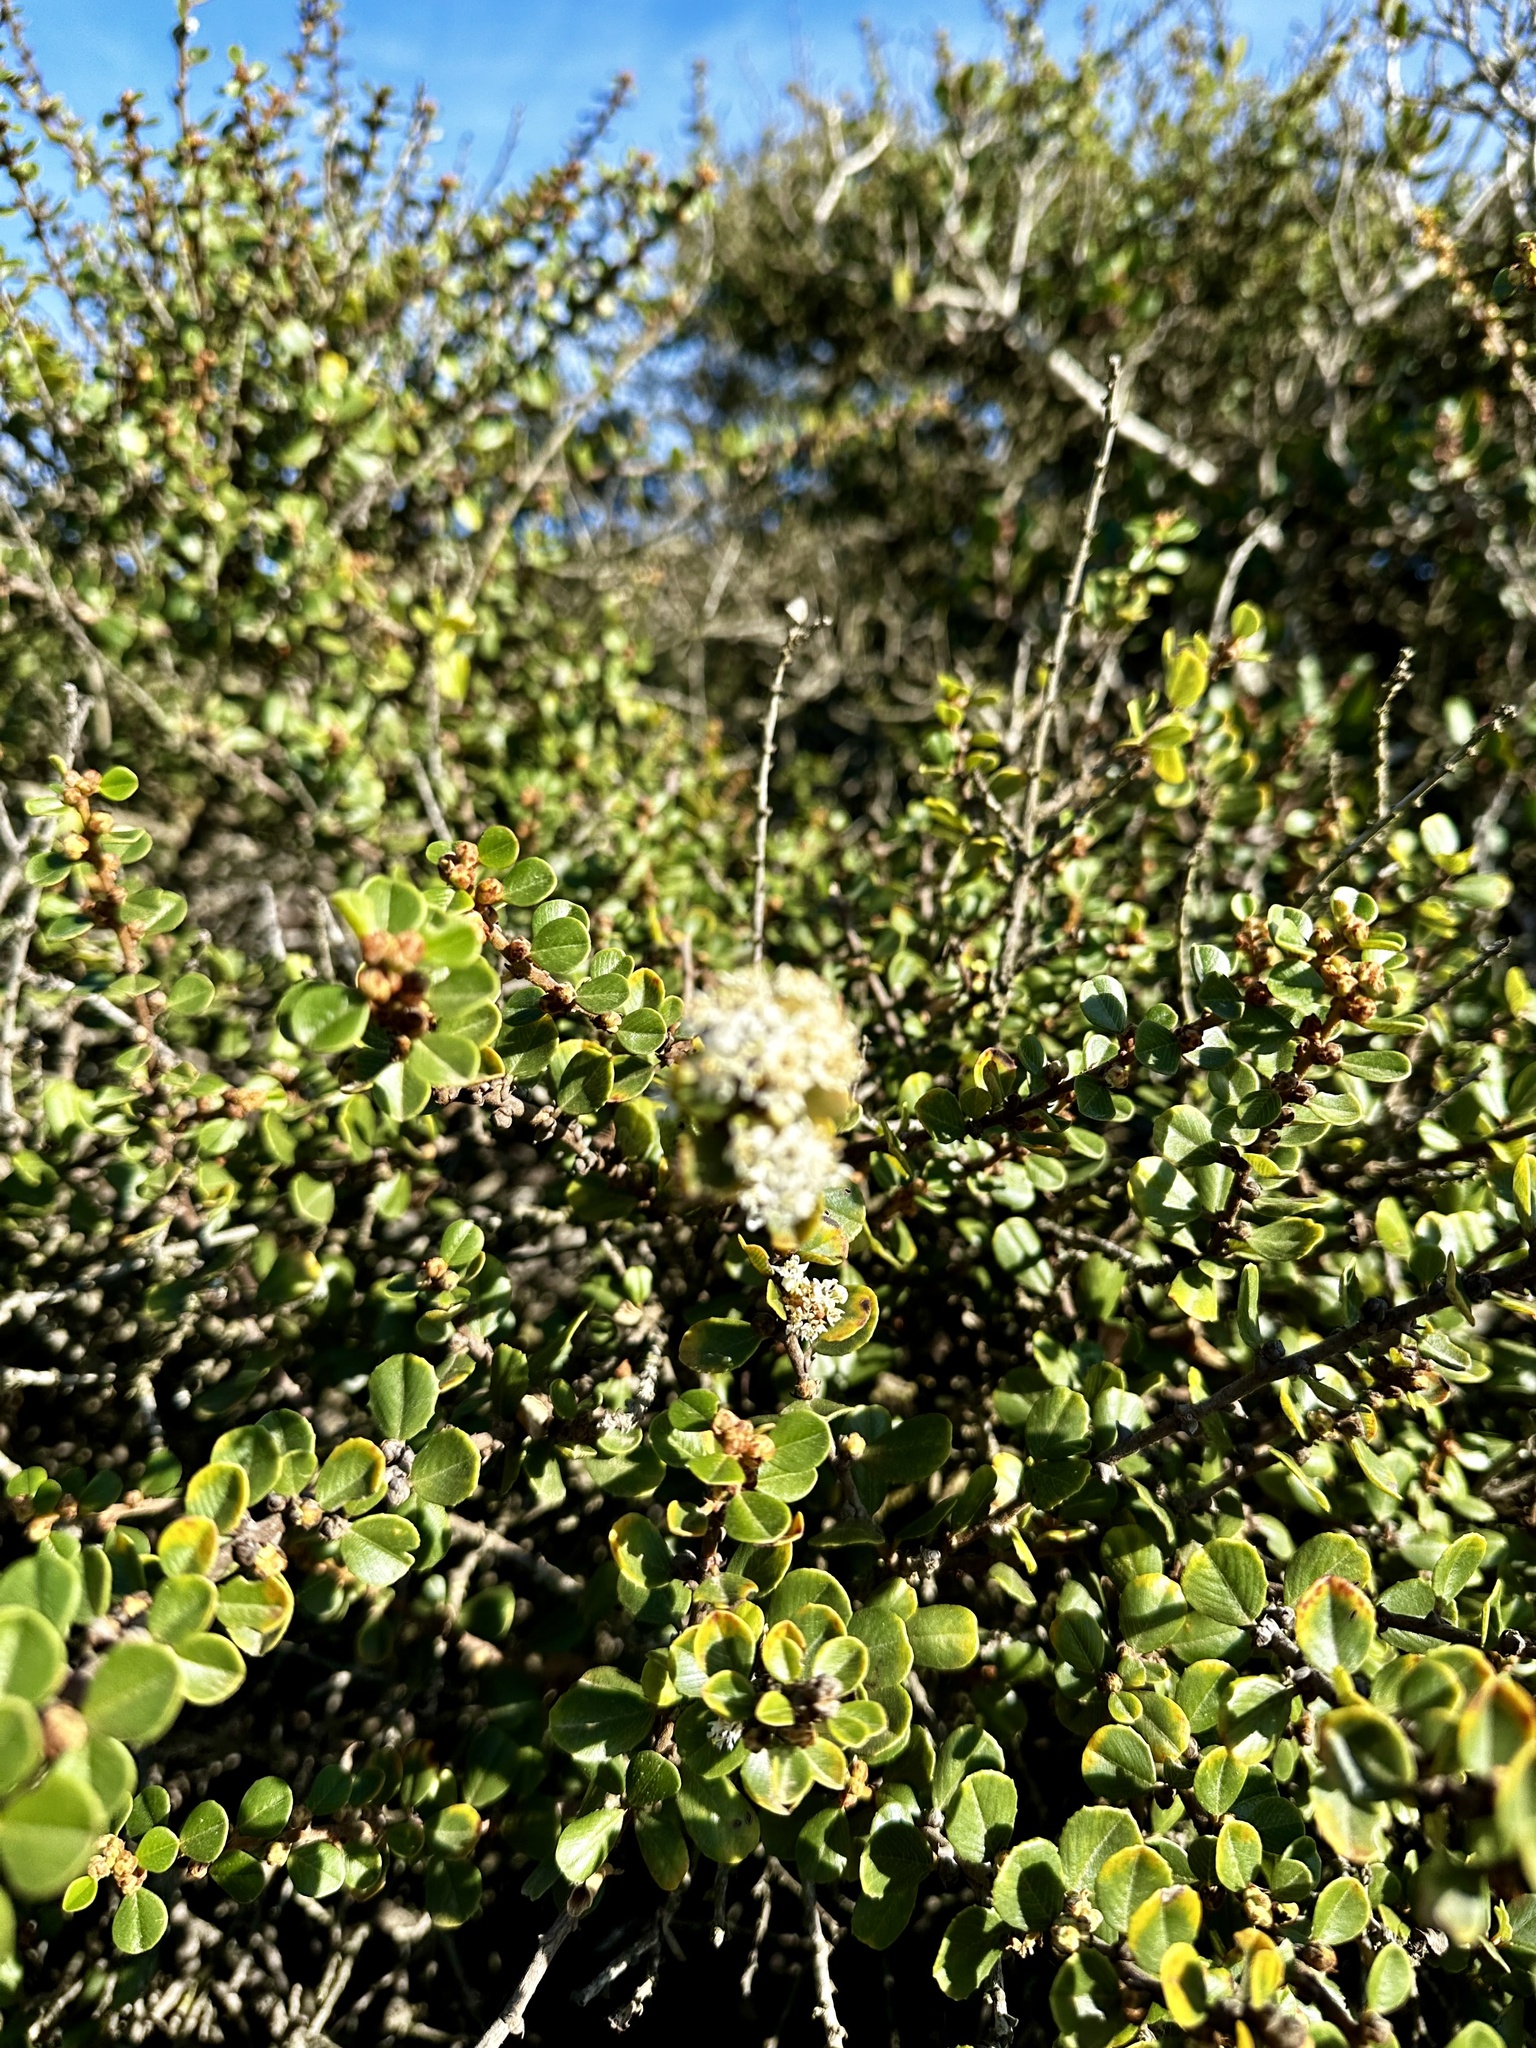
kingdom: Plantae
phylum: Tracheophyta
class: Magnoliopsida
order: Rosales
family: Rhamnaceae
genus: Ceanothus
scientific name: Ceanothus verrucosus
